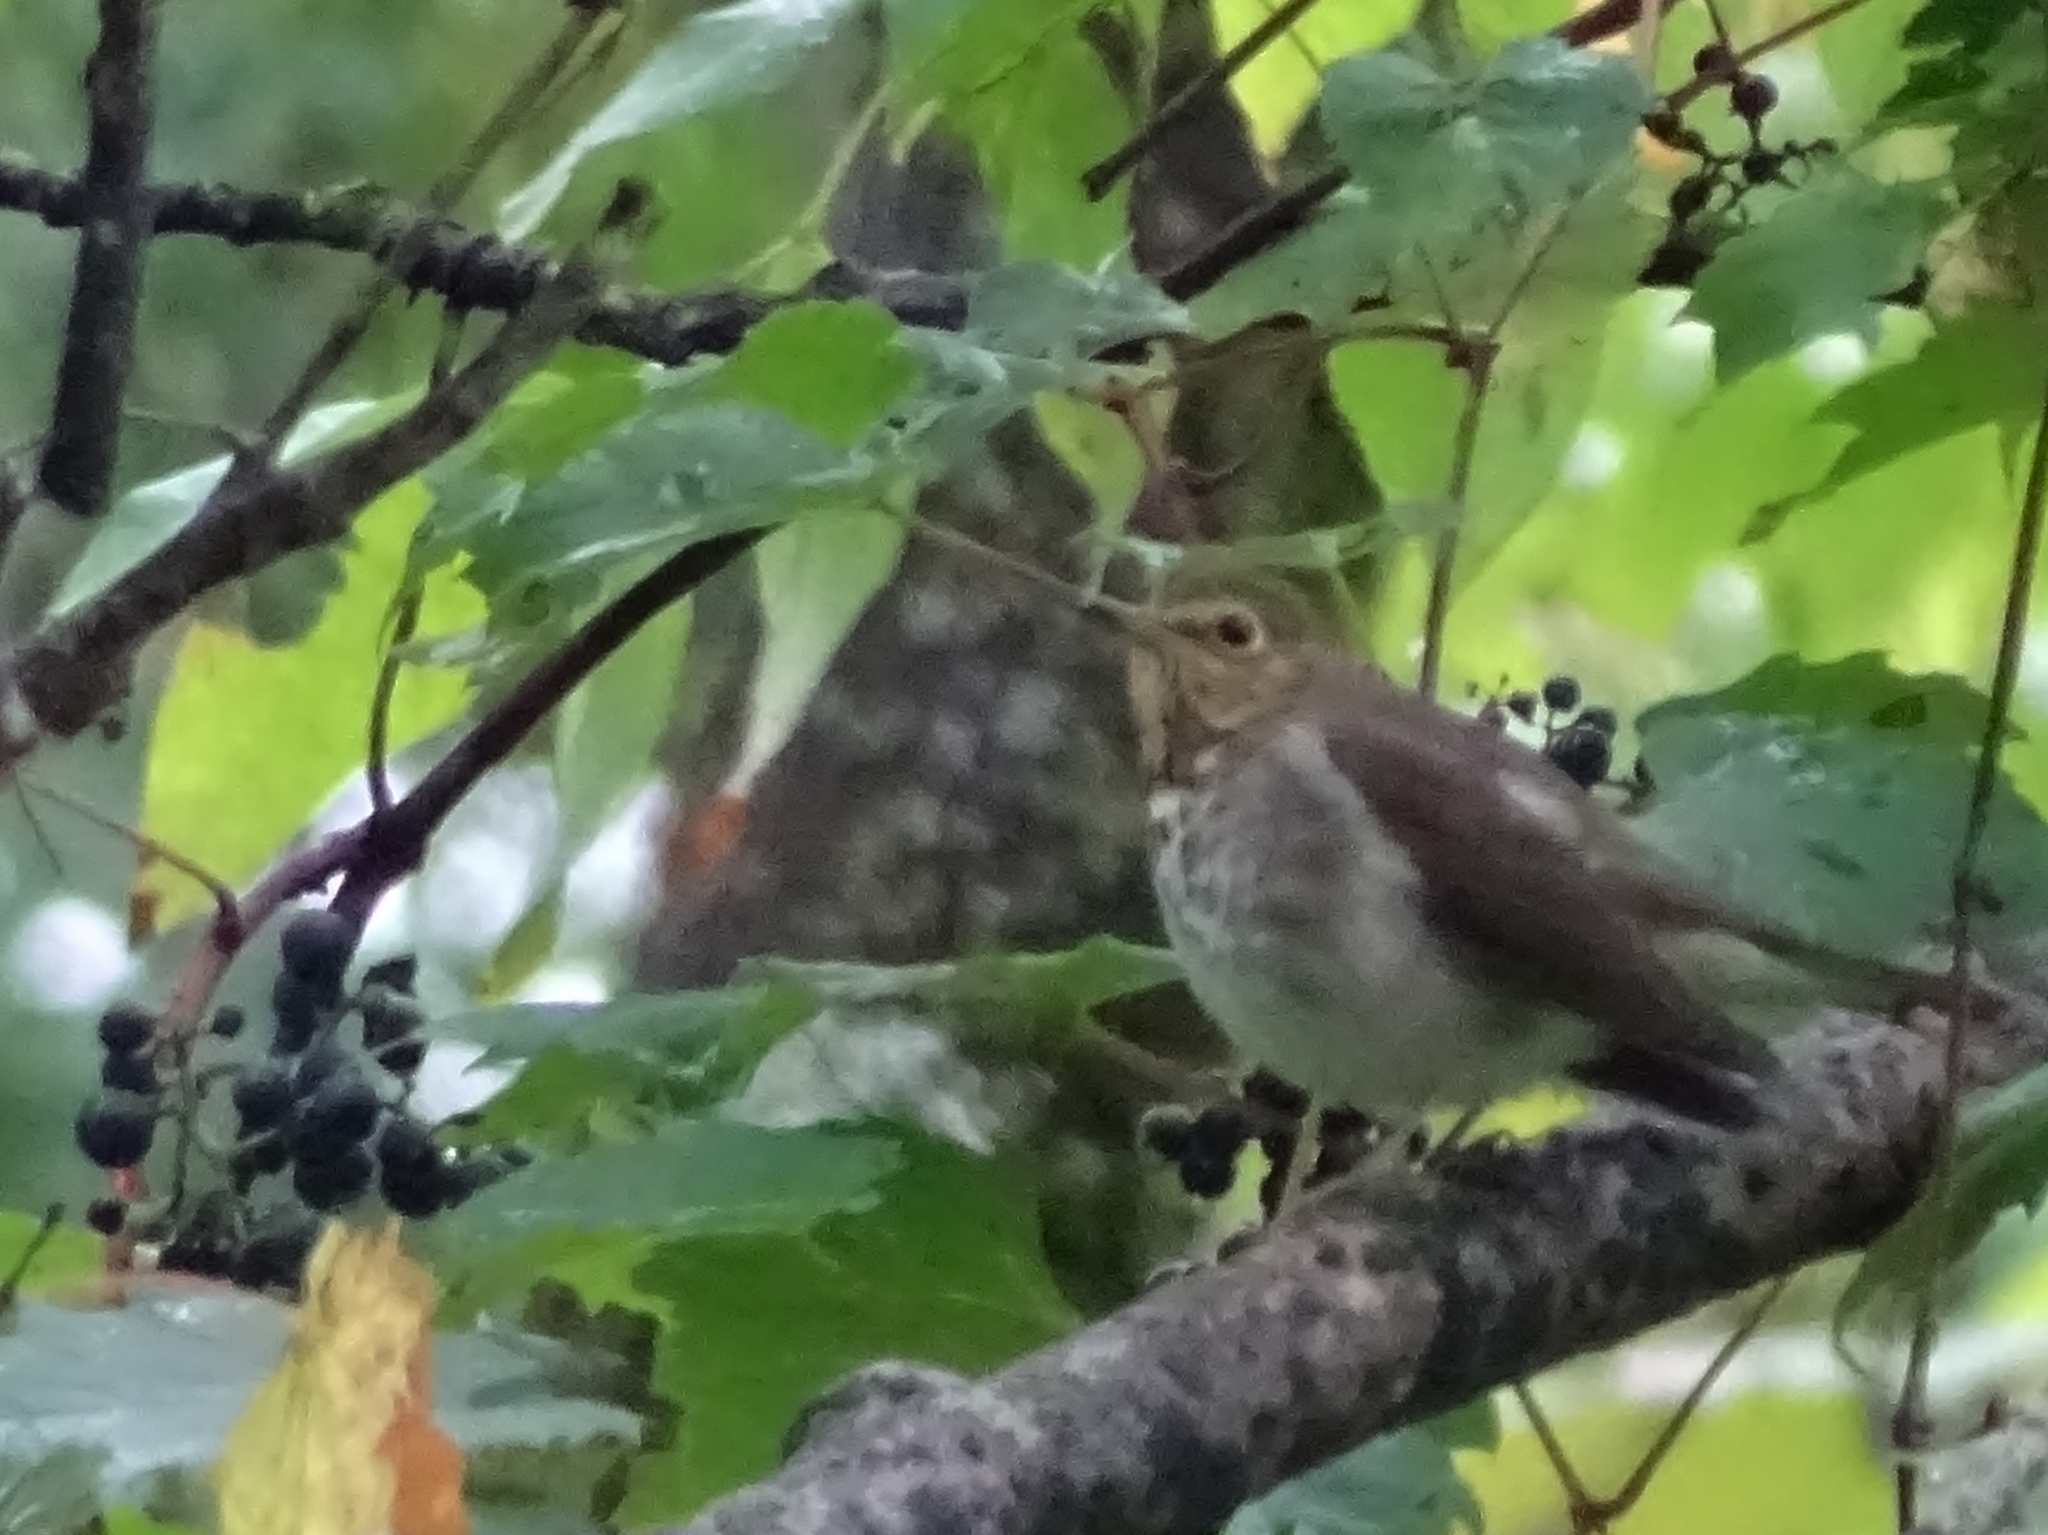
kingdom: Animalia
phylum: Chordata
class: Aves
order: Passeriformes
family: Turdidae
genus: Catharus
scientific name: Catharus ustulatus
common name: Swainson's thrush
